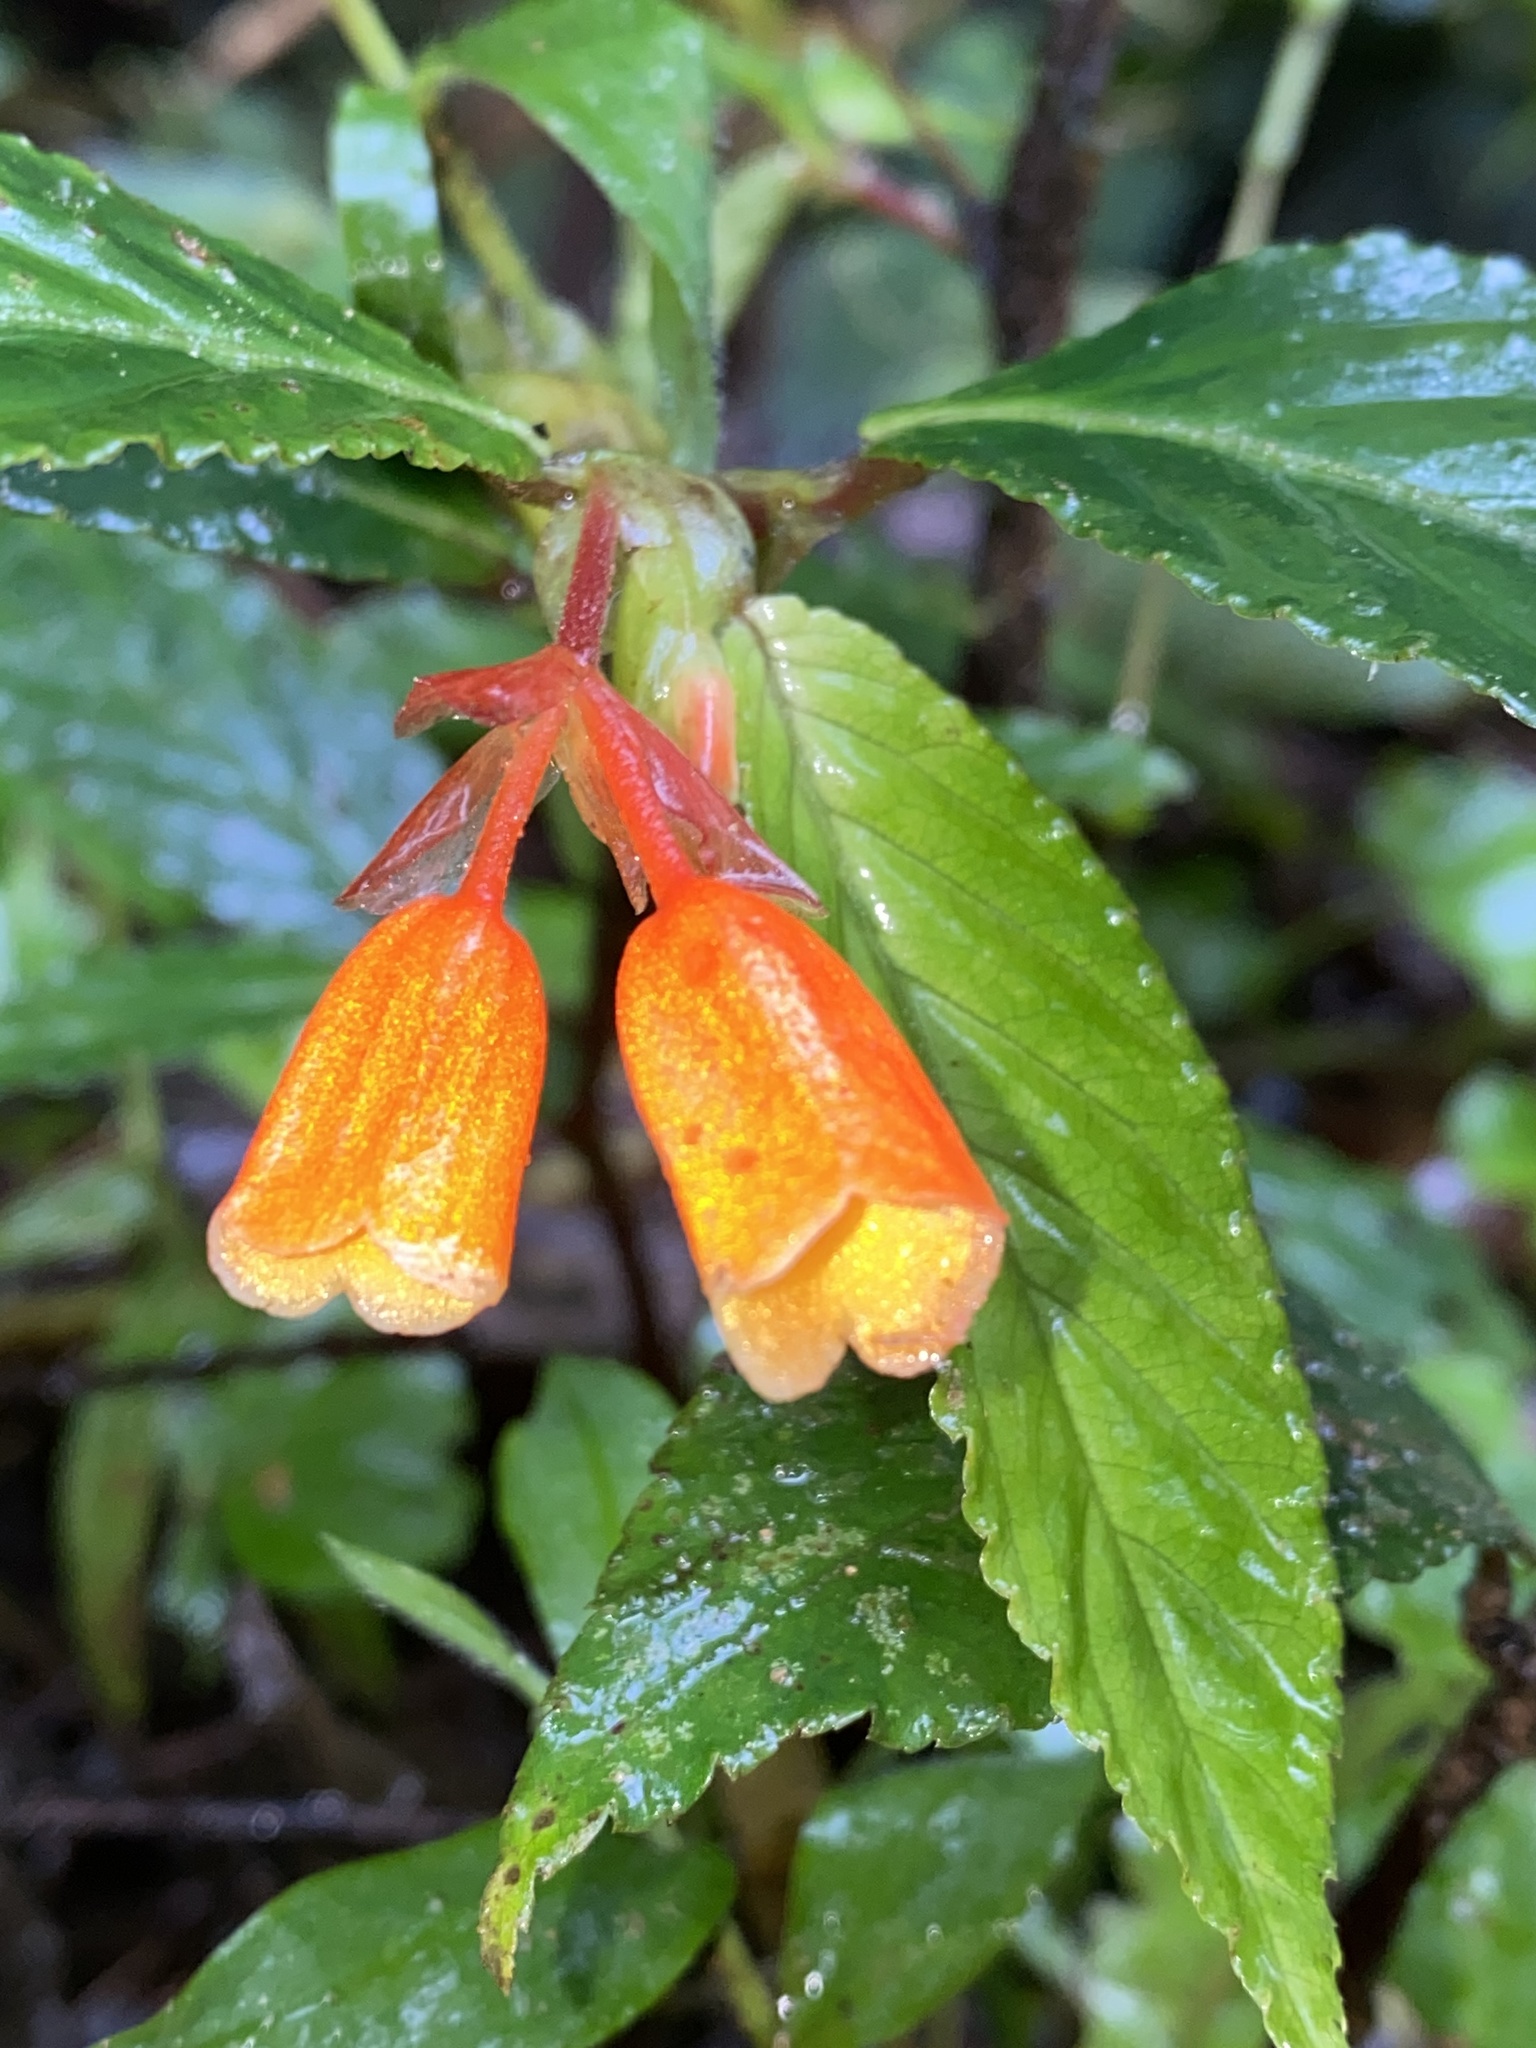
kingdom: Plantae
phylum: Tracheophyta
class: Magnoliopsida
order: Cucurbitales
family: Begoniaceae
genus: Begonia
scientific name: Begonia kalbreyeri
